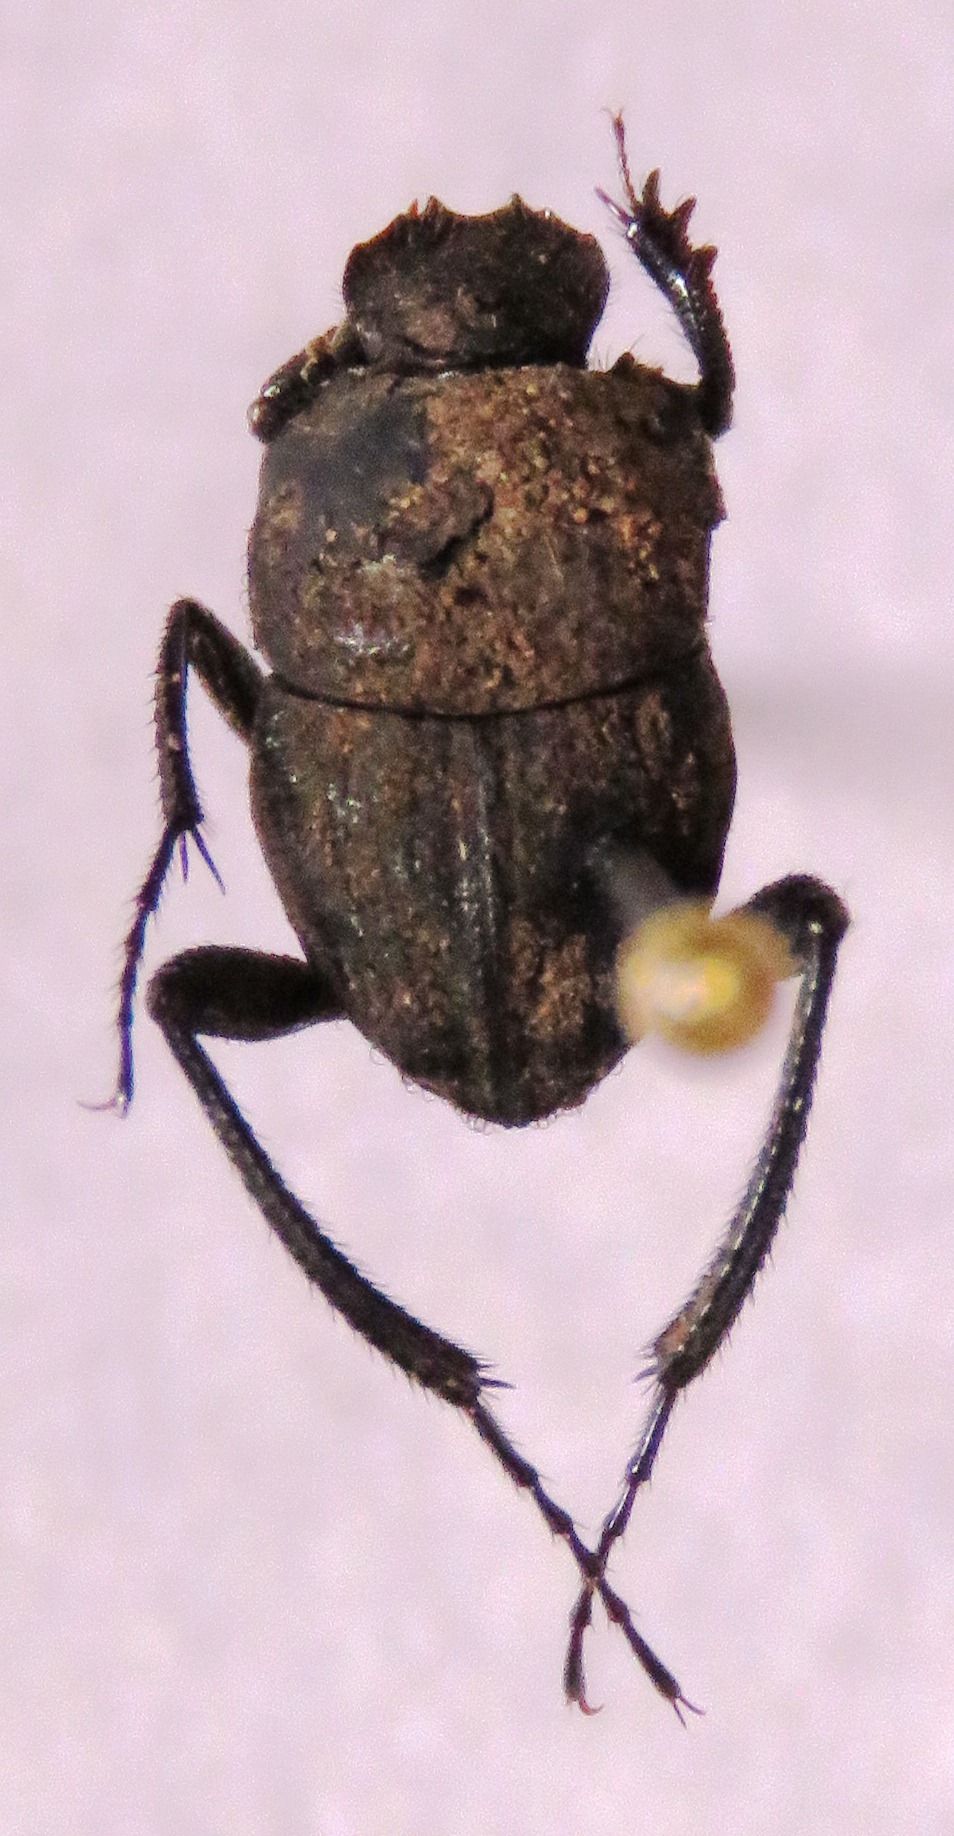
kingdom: Animalia
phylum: Arthropoda
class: Insecta
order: Coleoptera
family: Scarabaeidae
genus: Sisyphus
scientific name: Sisyphus crispatus
